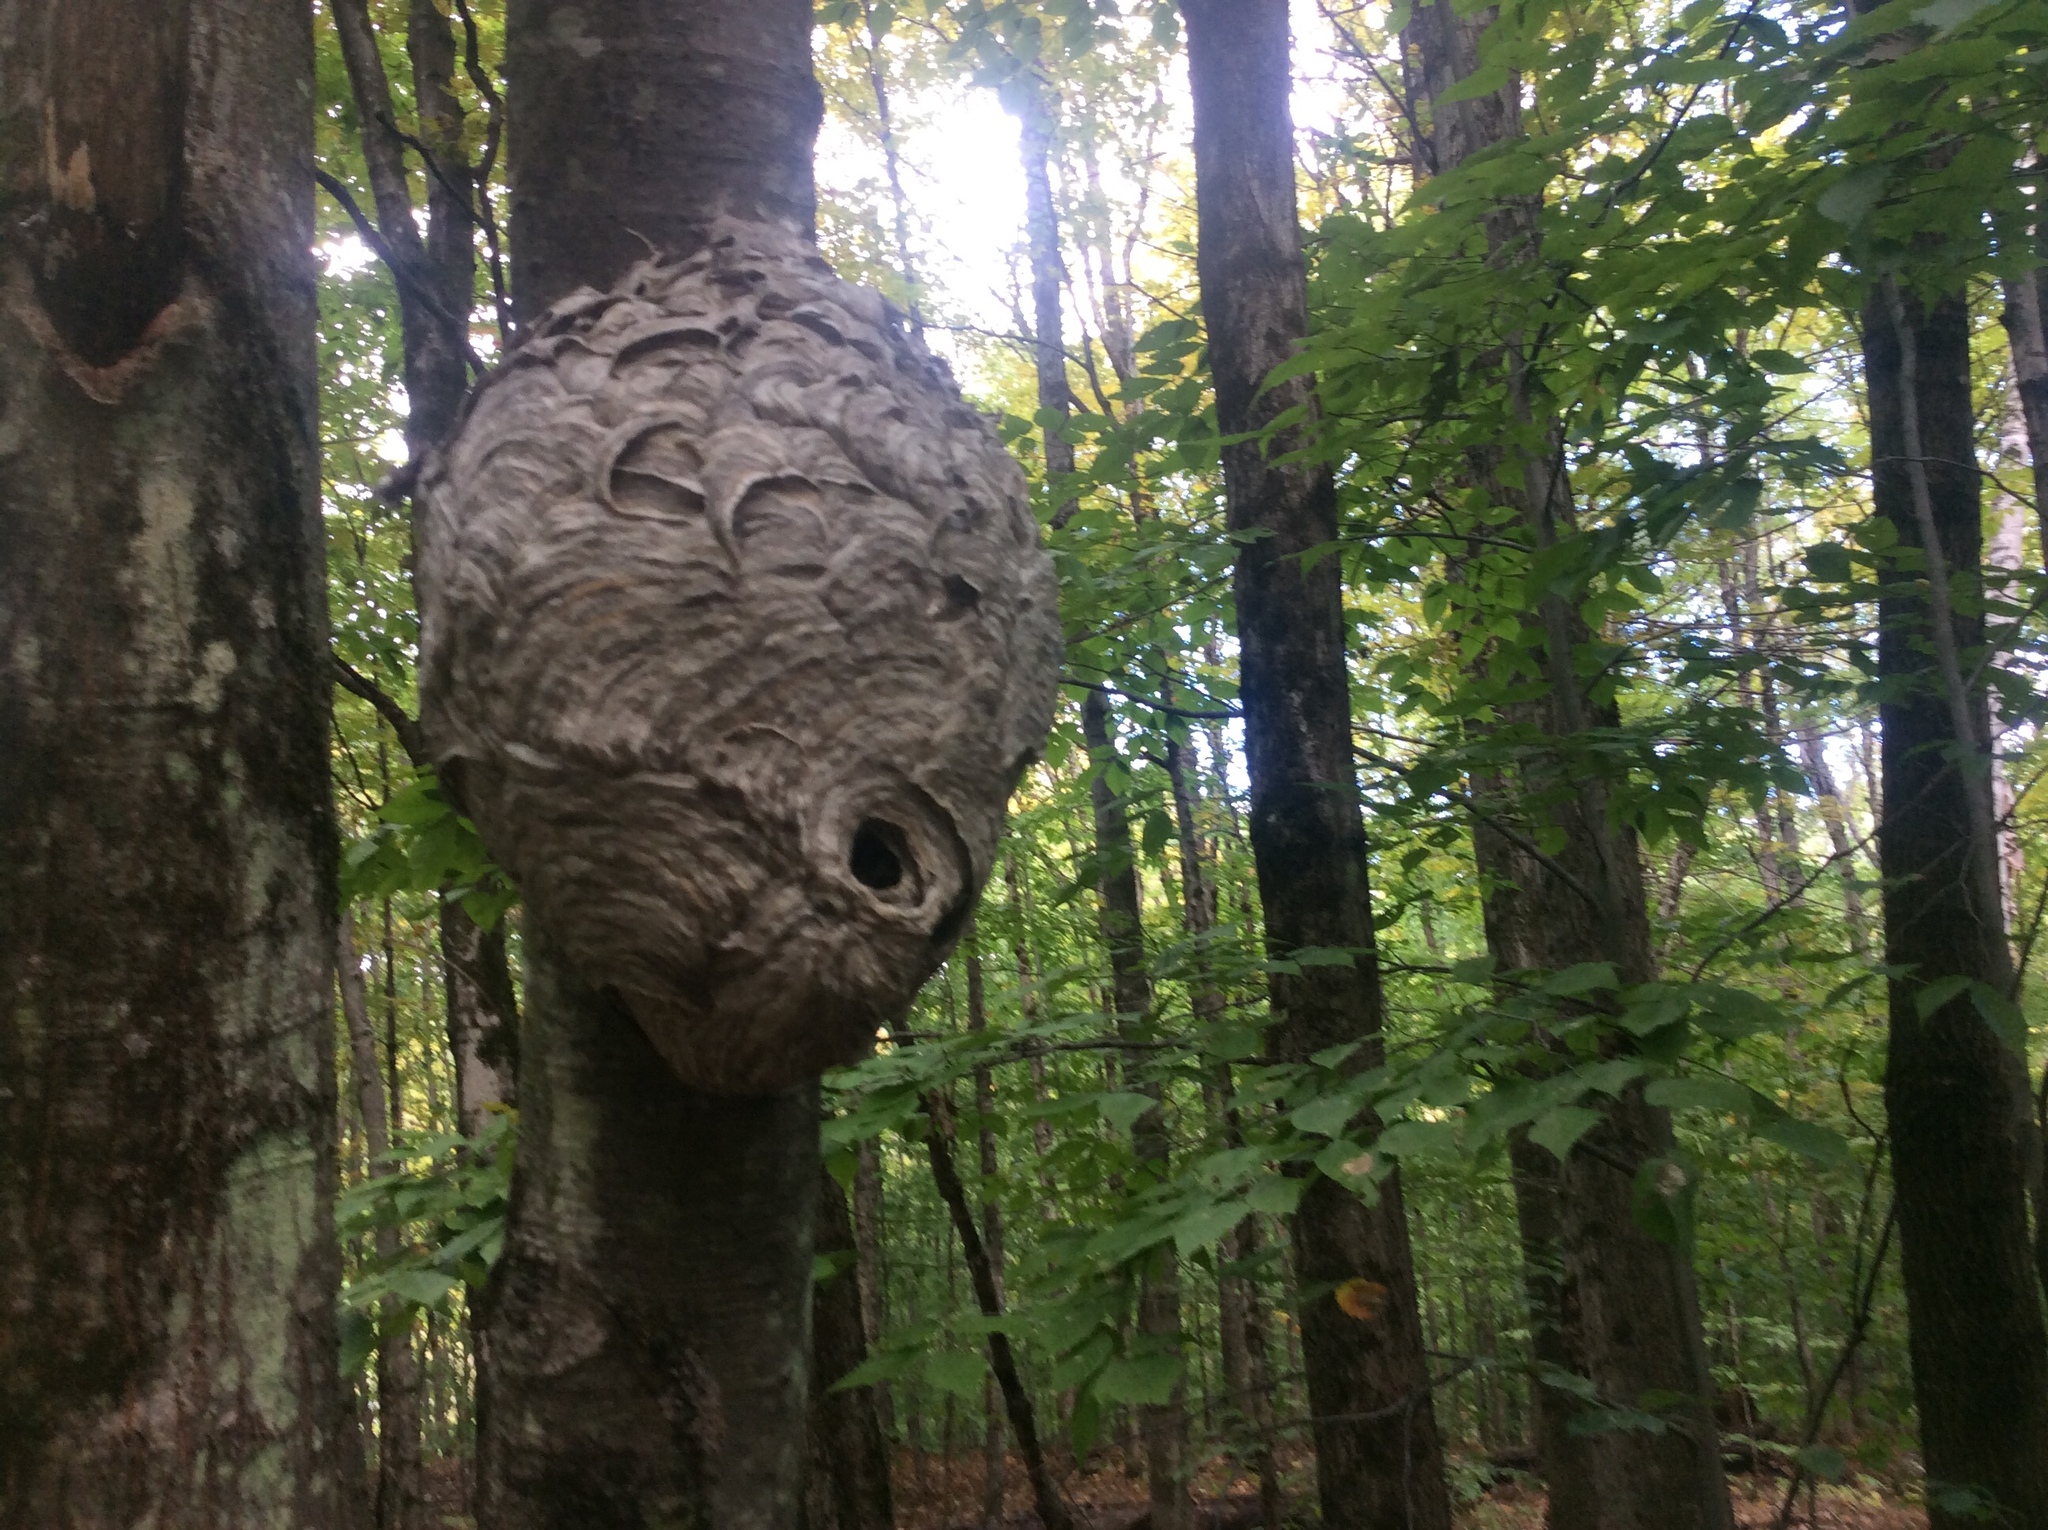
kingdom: Animalia
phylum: Arthropoda
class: Insecta
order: Hymenoptera
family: Vespidae
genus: Dolichovespula
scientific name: Dolichovespula maculata
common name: Bald-faced hornet
